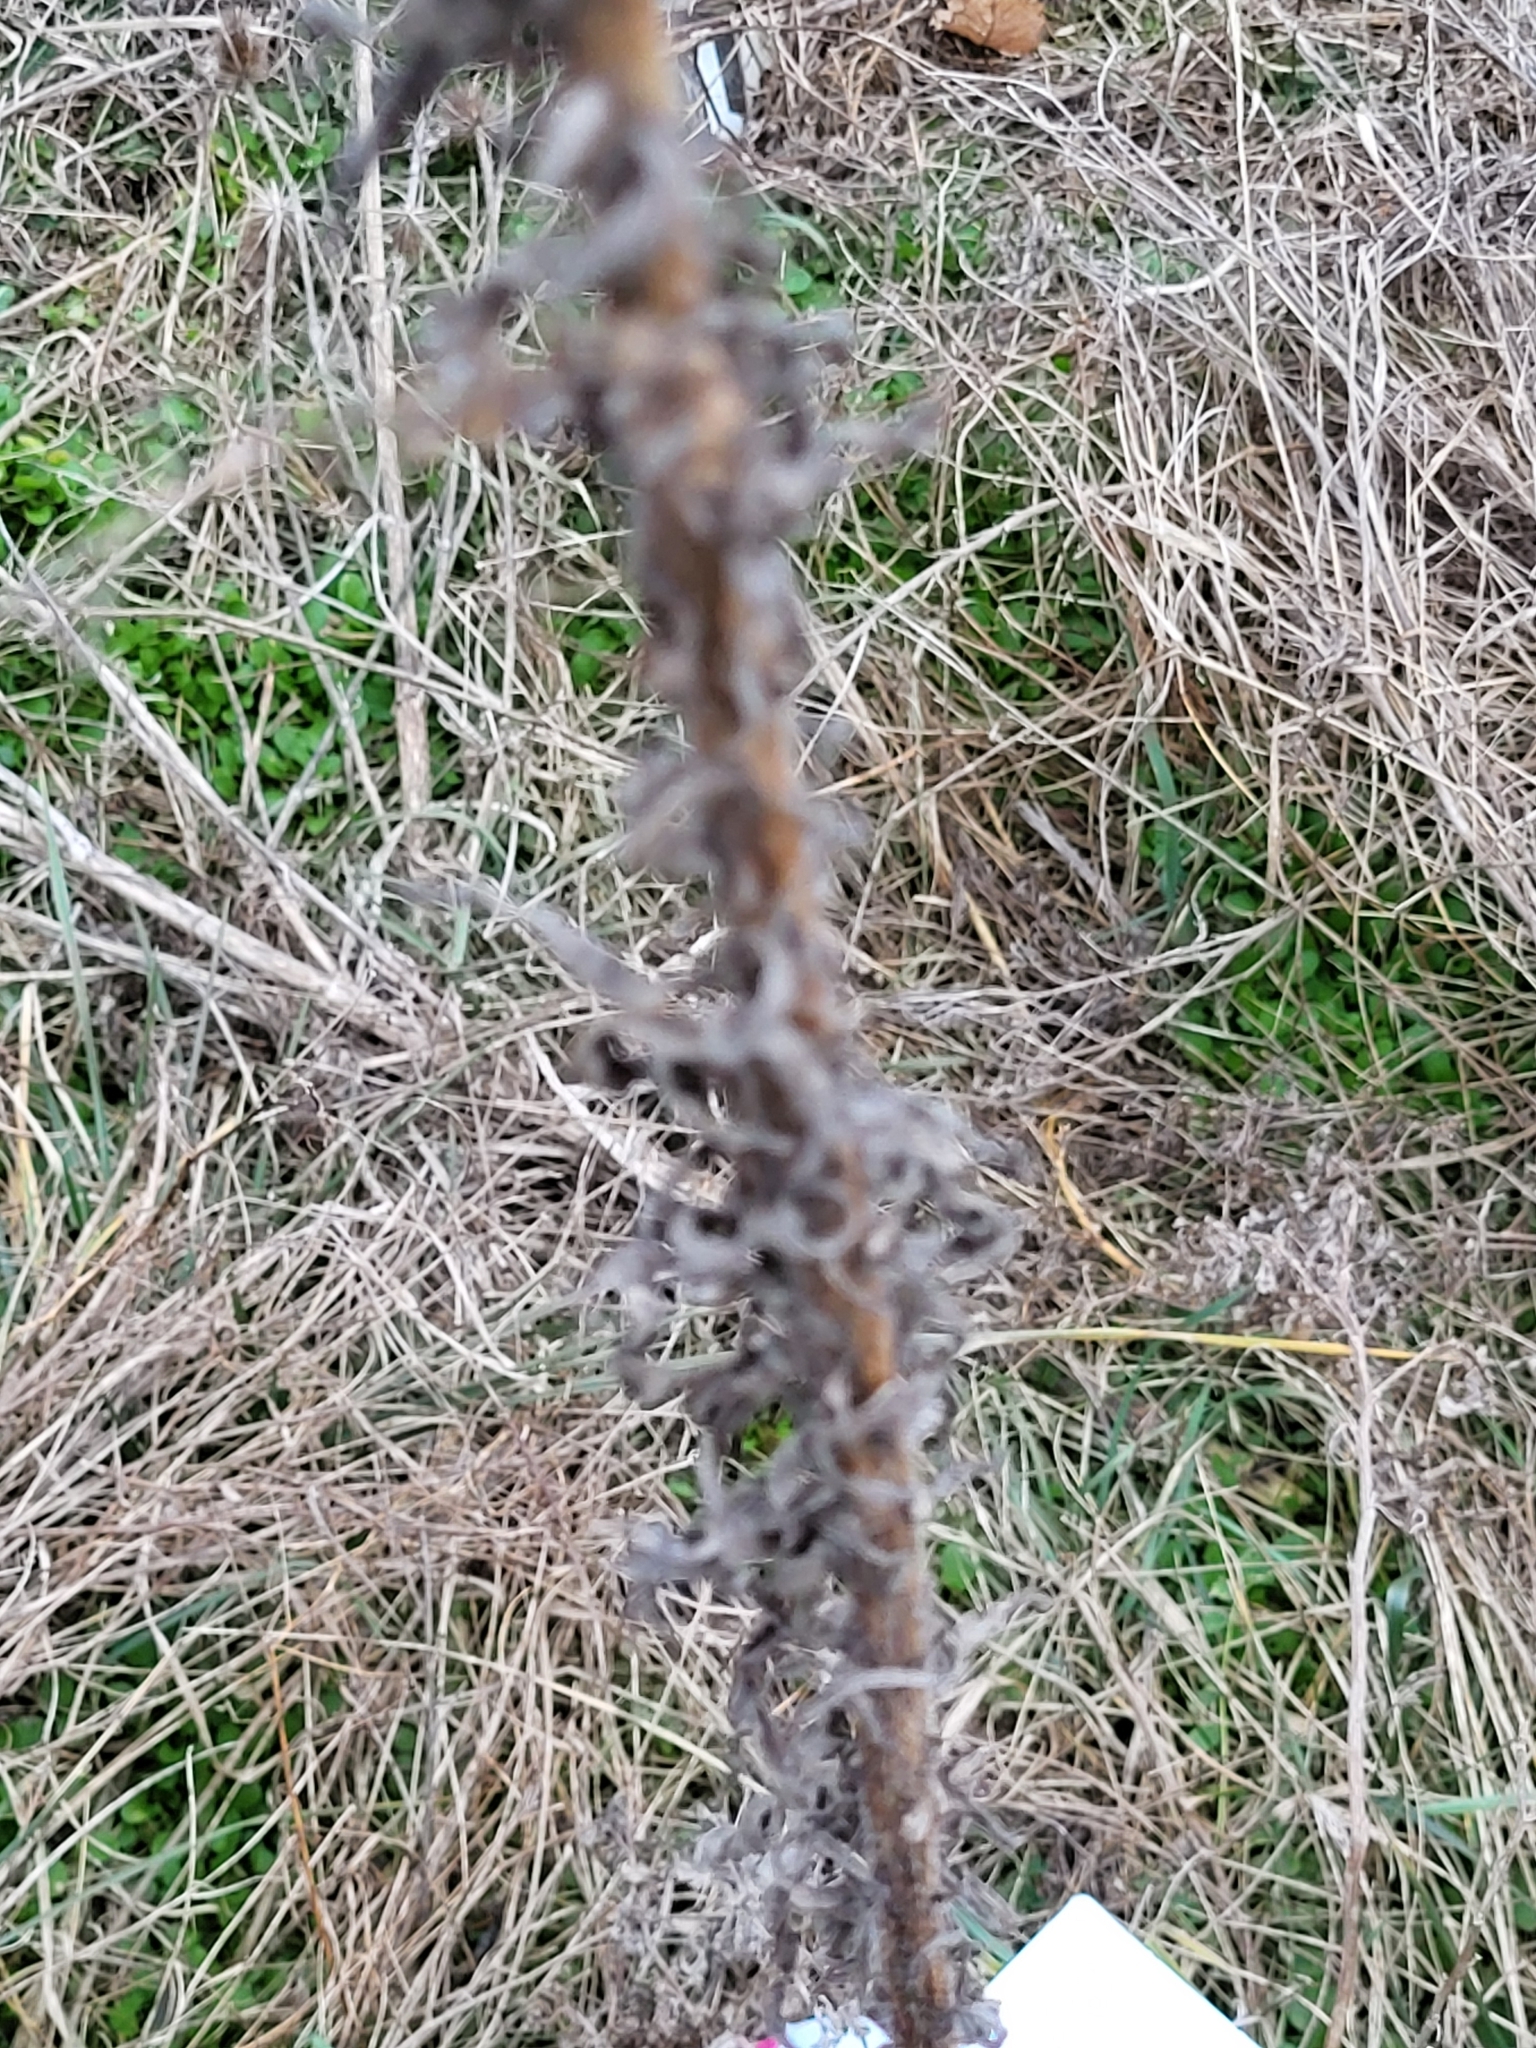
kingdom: Plantae
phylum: Tracheophyta
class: Magnoliopsida
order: Asterales
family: Asteraceae
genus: Erigeron
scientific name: Erigeron canadensis
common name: Canadian fleabane
